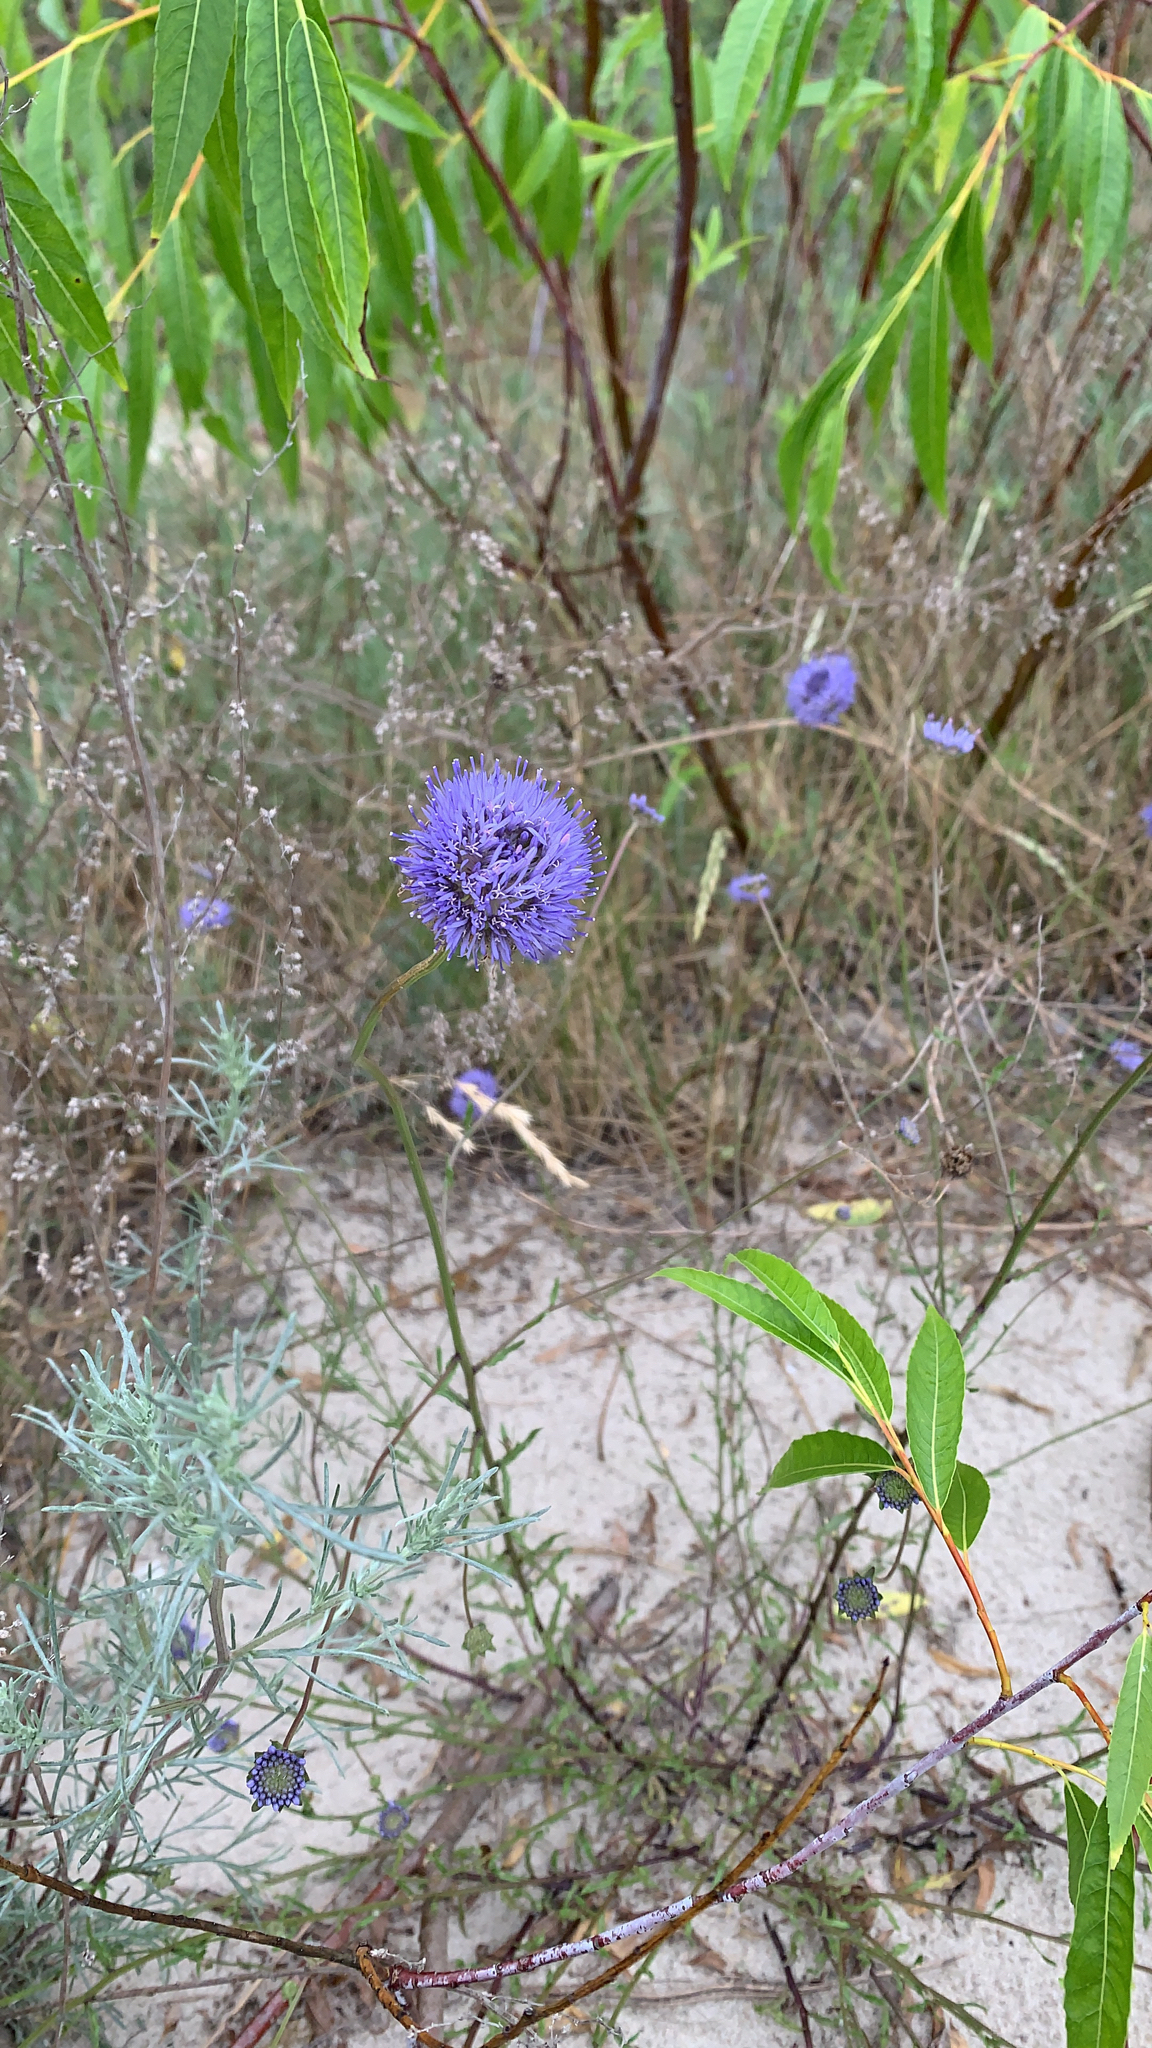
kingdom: Plantae
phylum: Tracheophyta
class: Magnoliopsida
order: Asterales
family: Campanulaceae
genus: Jasione
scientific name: Jasione montana
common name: Sheep's-bit
